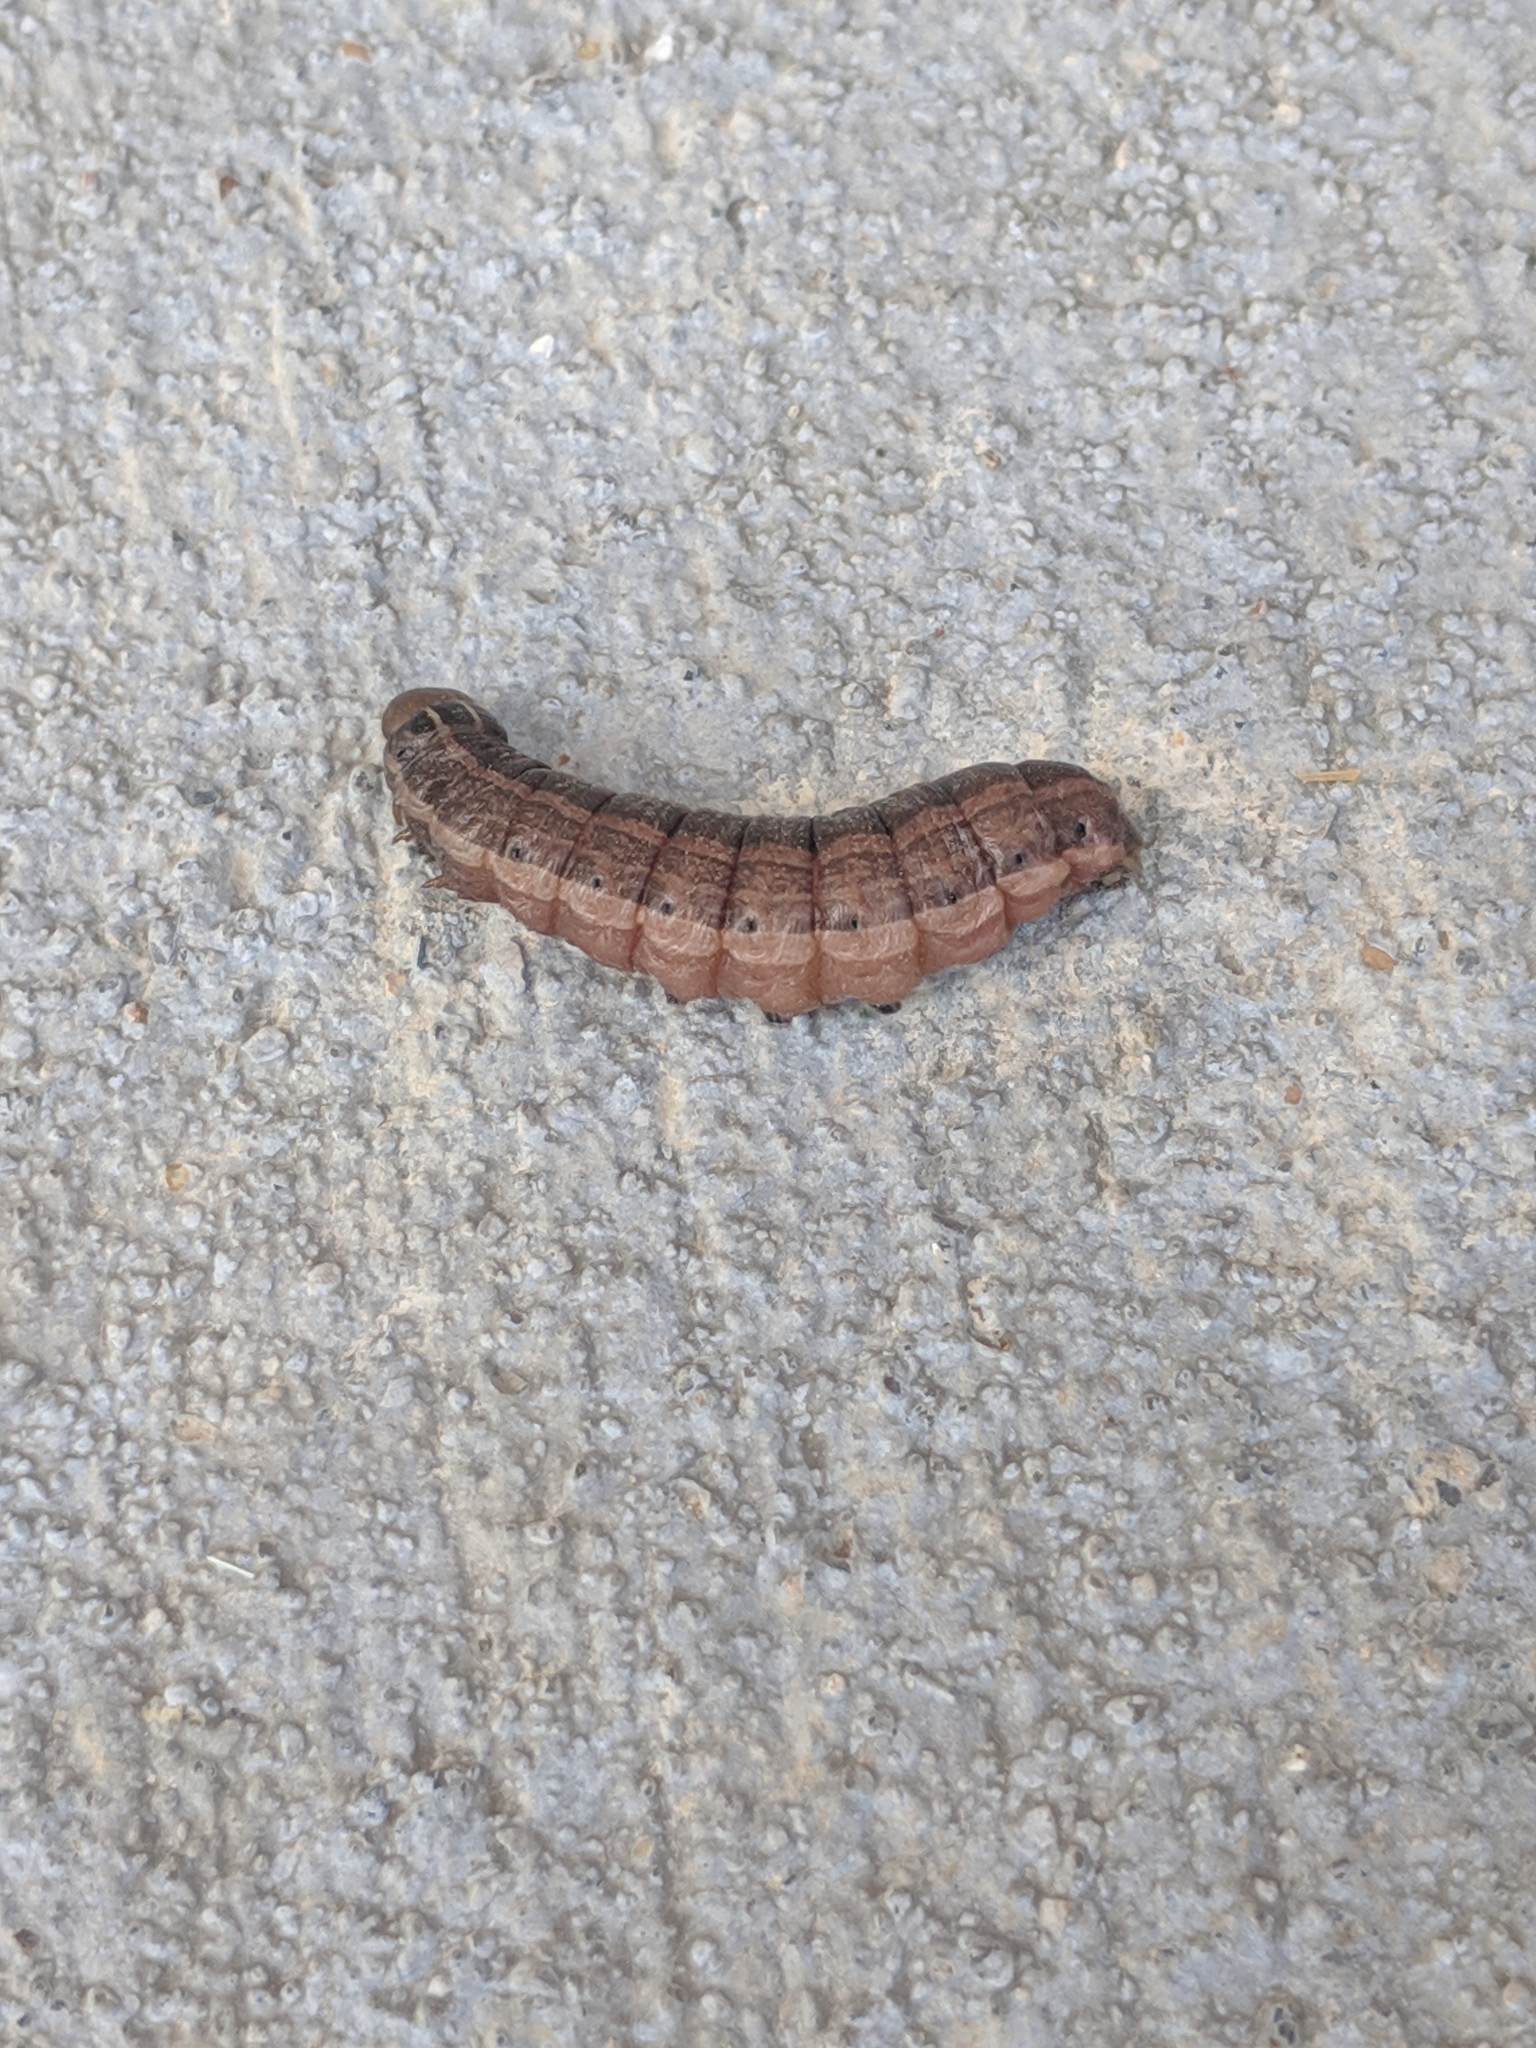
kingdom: Animalia
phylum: Arthropoda
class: Insecta
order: Lepidoptera
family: Noctuidae
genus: Nephelodes
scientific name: Nephelodes minians
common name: Bronzed cutworm
